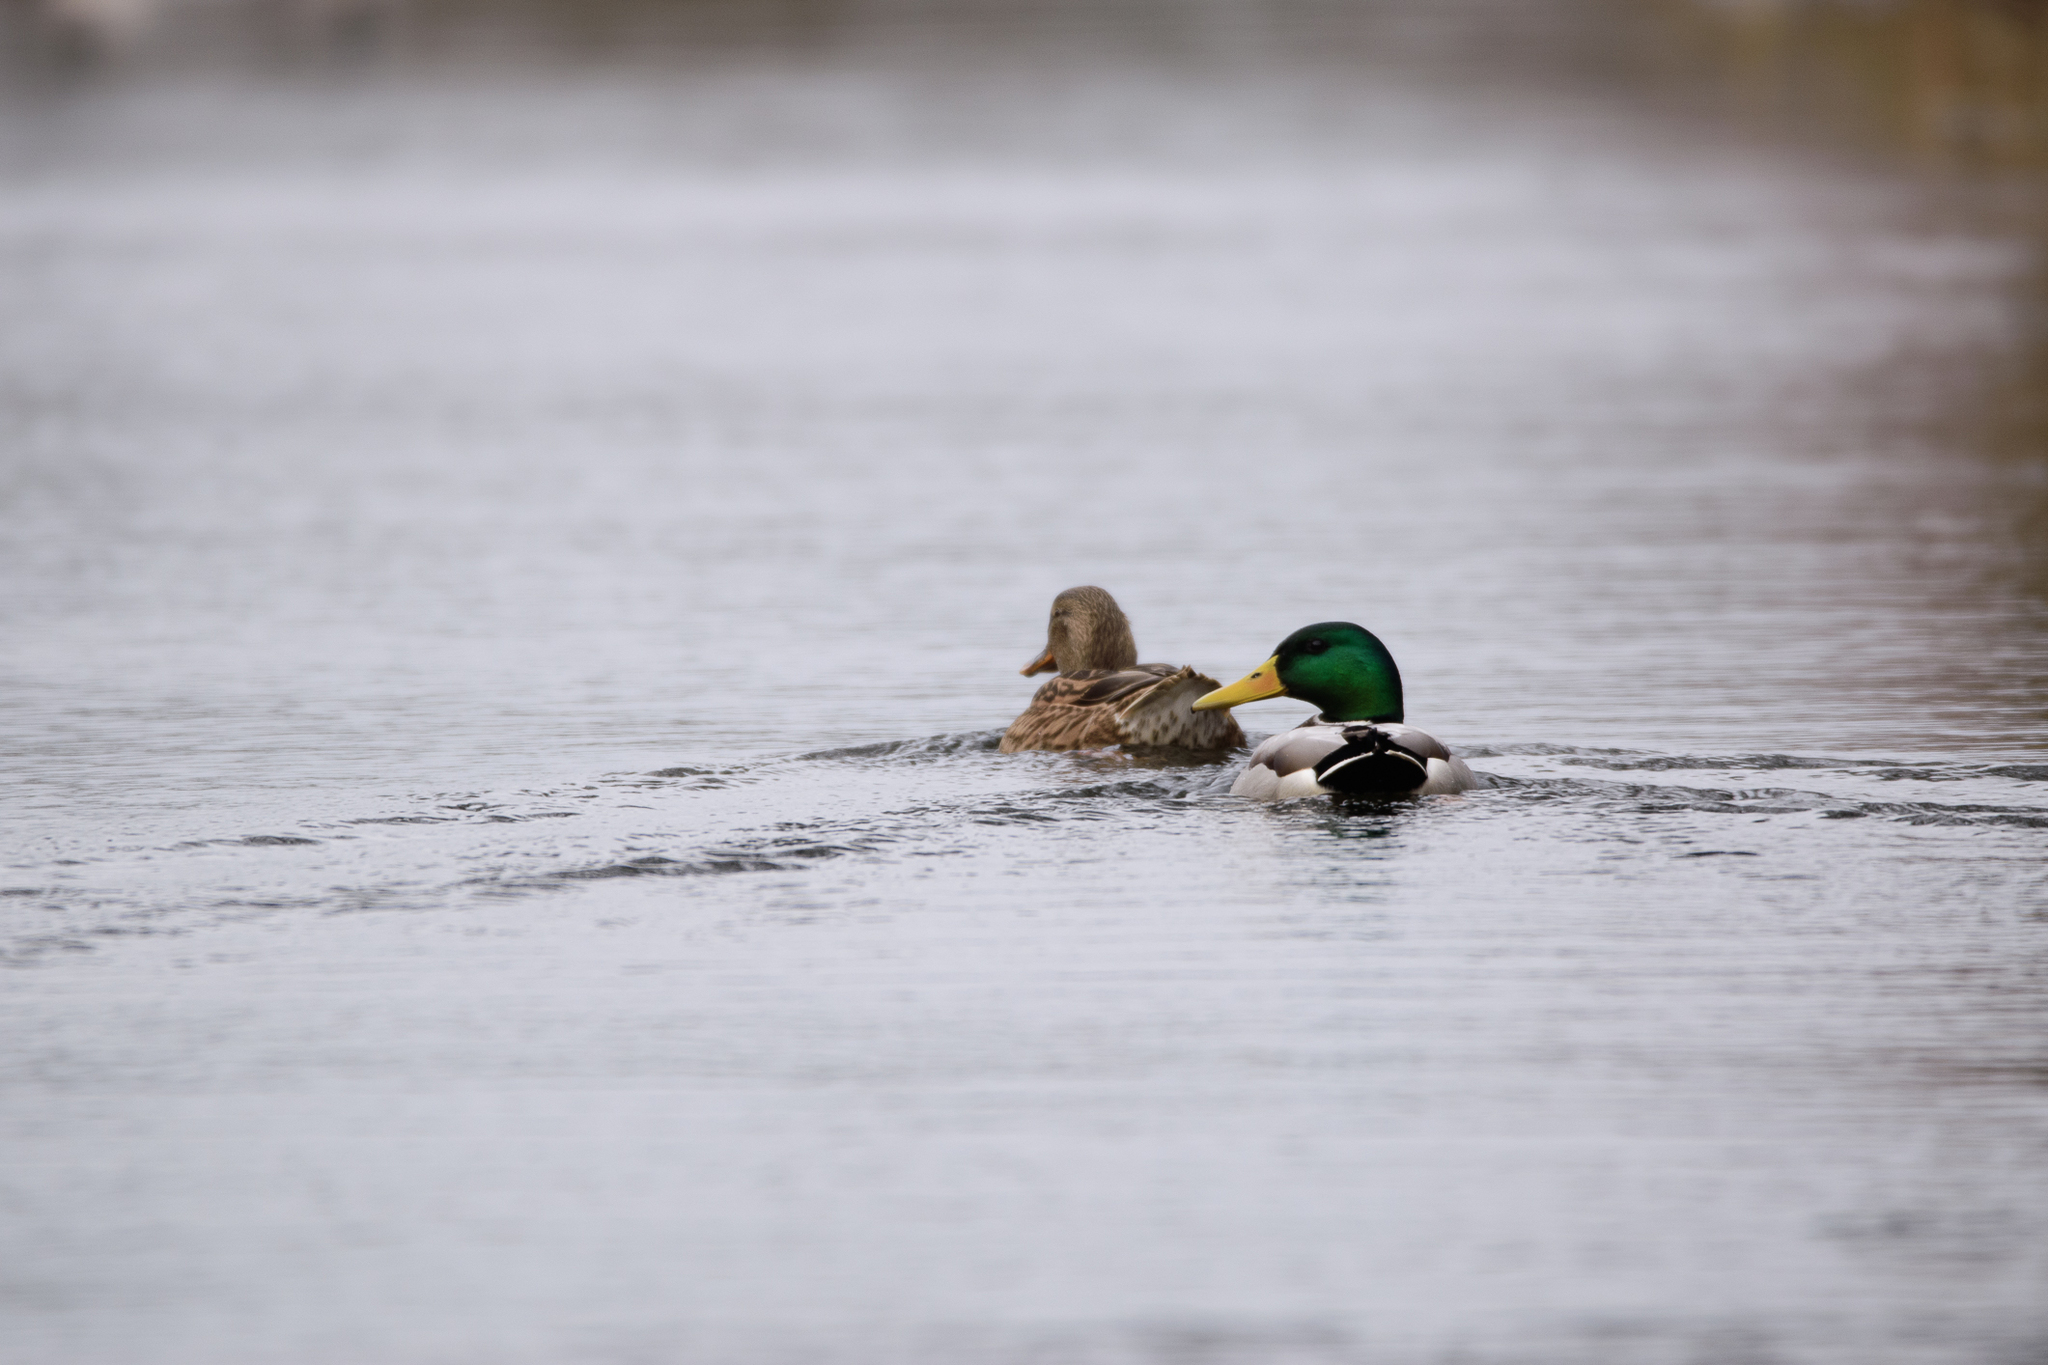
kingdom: Animalia
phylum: Chordata
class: Aves
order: Anseriformes
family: Anatidae
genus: Anas
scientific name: Anas platyrhynchos
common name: Mallard
